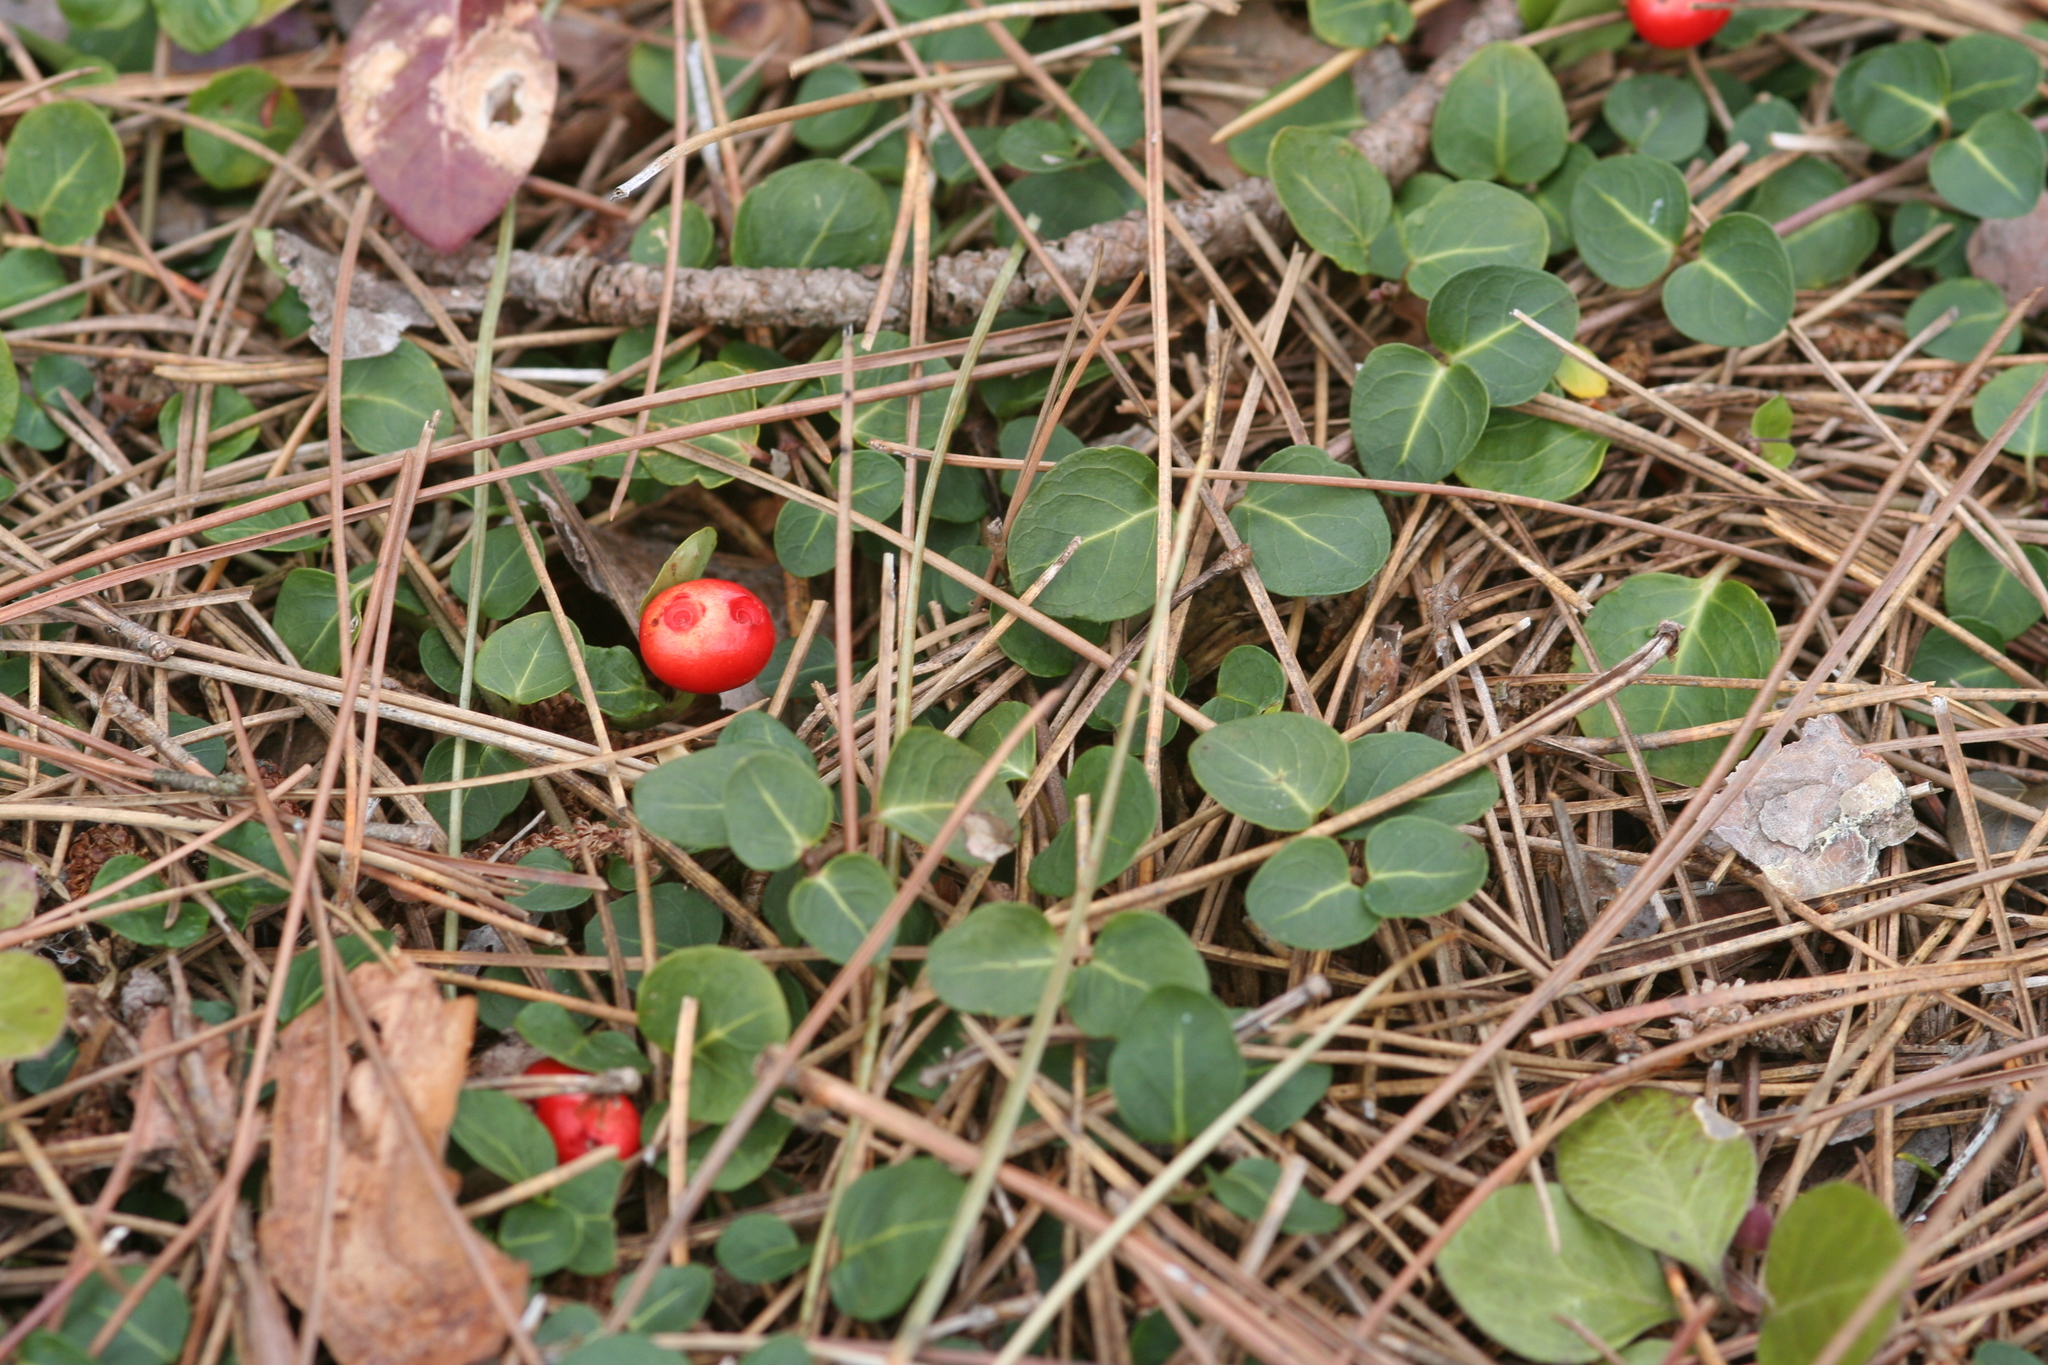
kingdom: Plantae
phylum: Tracheophyta
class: Magnoliopsida
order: Gentianales
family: Rubiaceae
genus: Mitchella
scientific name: Mitchella repens
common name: Partridge-berry
